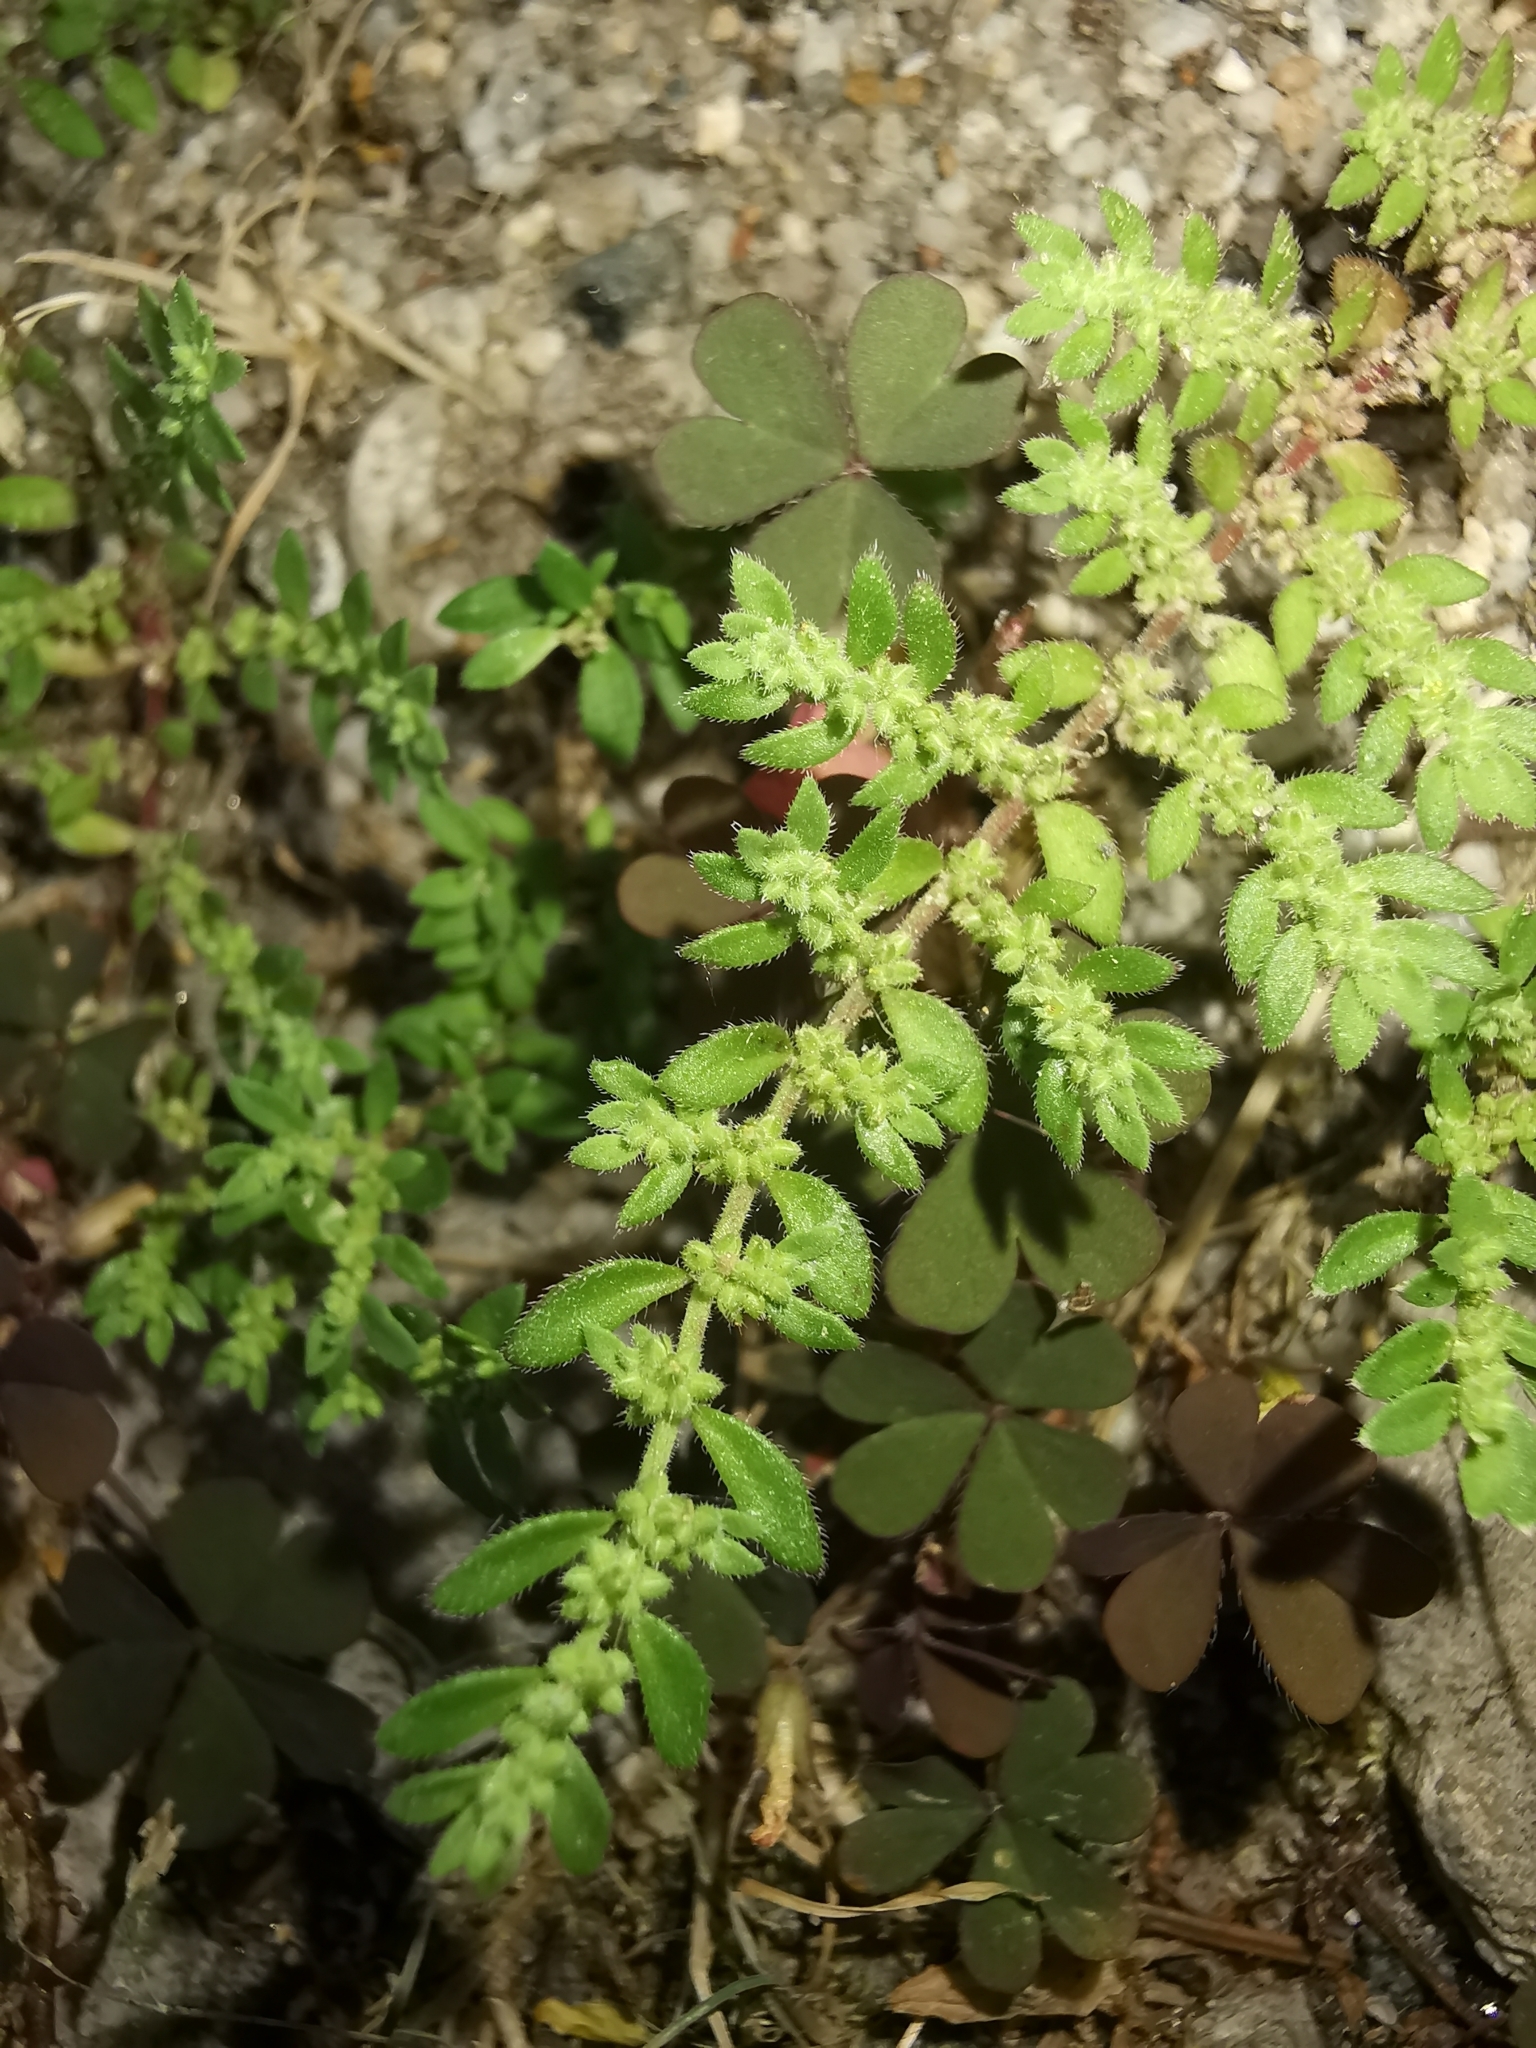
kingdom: Plantae
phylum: Tracheophyta
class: Magnoliopsida
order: Caryophyllales
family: Caryophyllaceae
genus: Herniaria
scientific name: Herniaria hirsuta
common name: Hairy rupturewort
